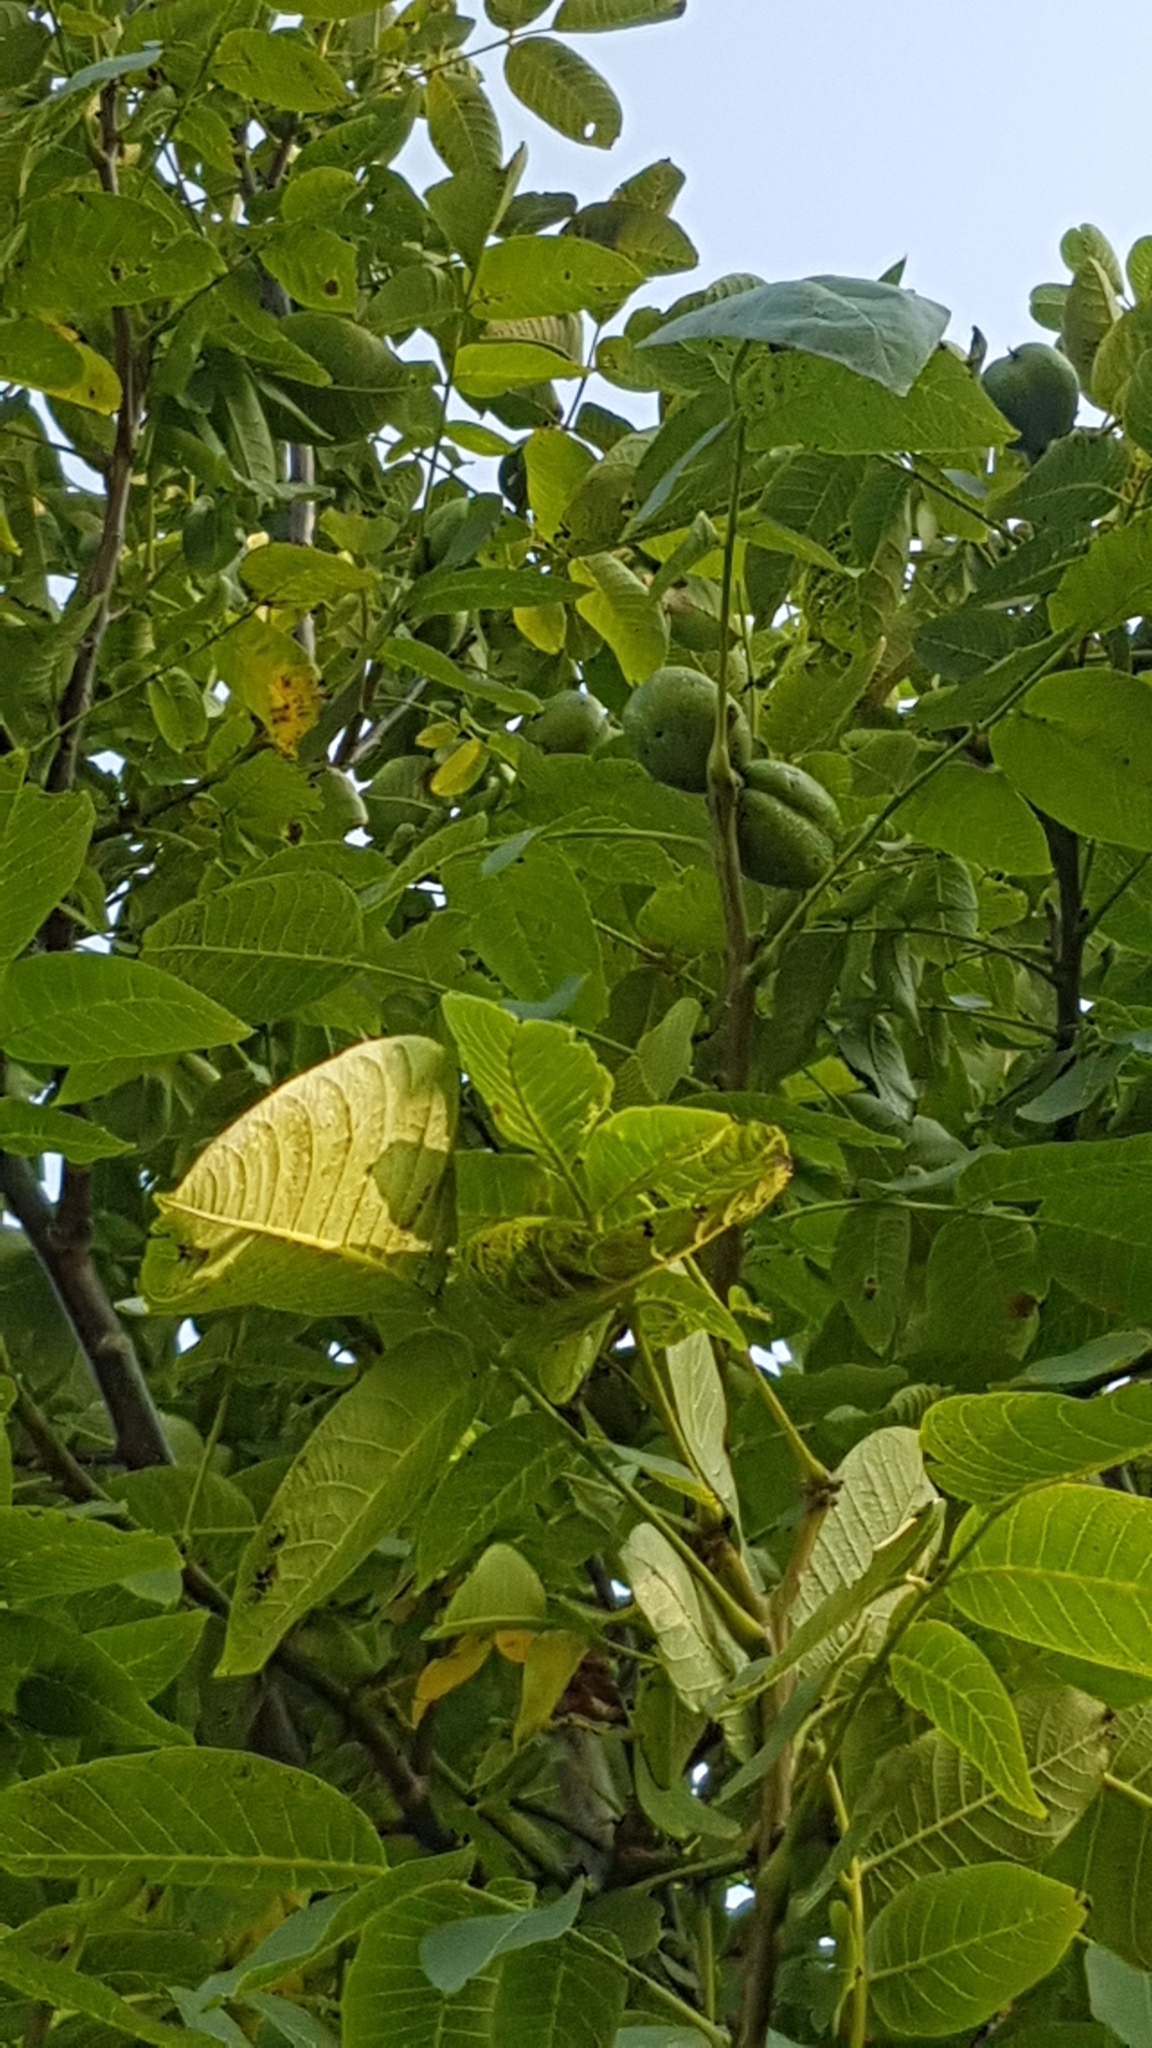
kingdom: Plantae
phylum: Tracheophyta
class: Magnoliopsida
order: Fagales
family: Juglandaceae
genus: Juglans
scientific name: Juglans regia
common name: Walnut
